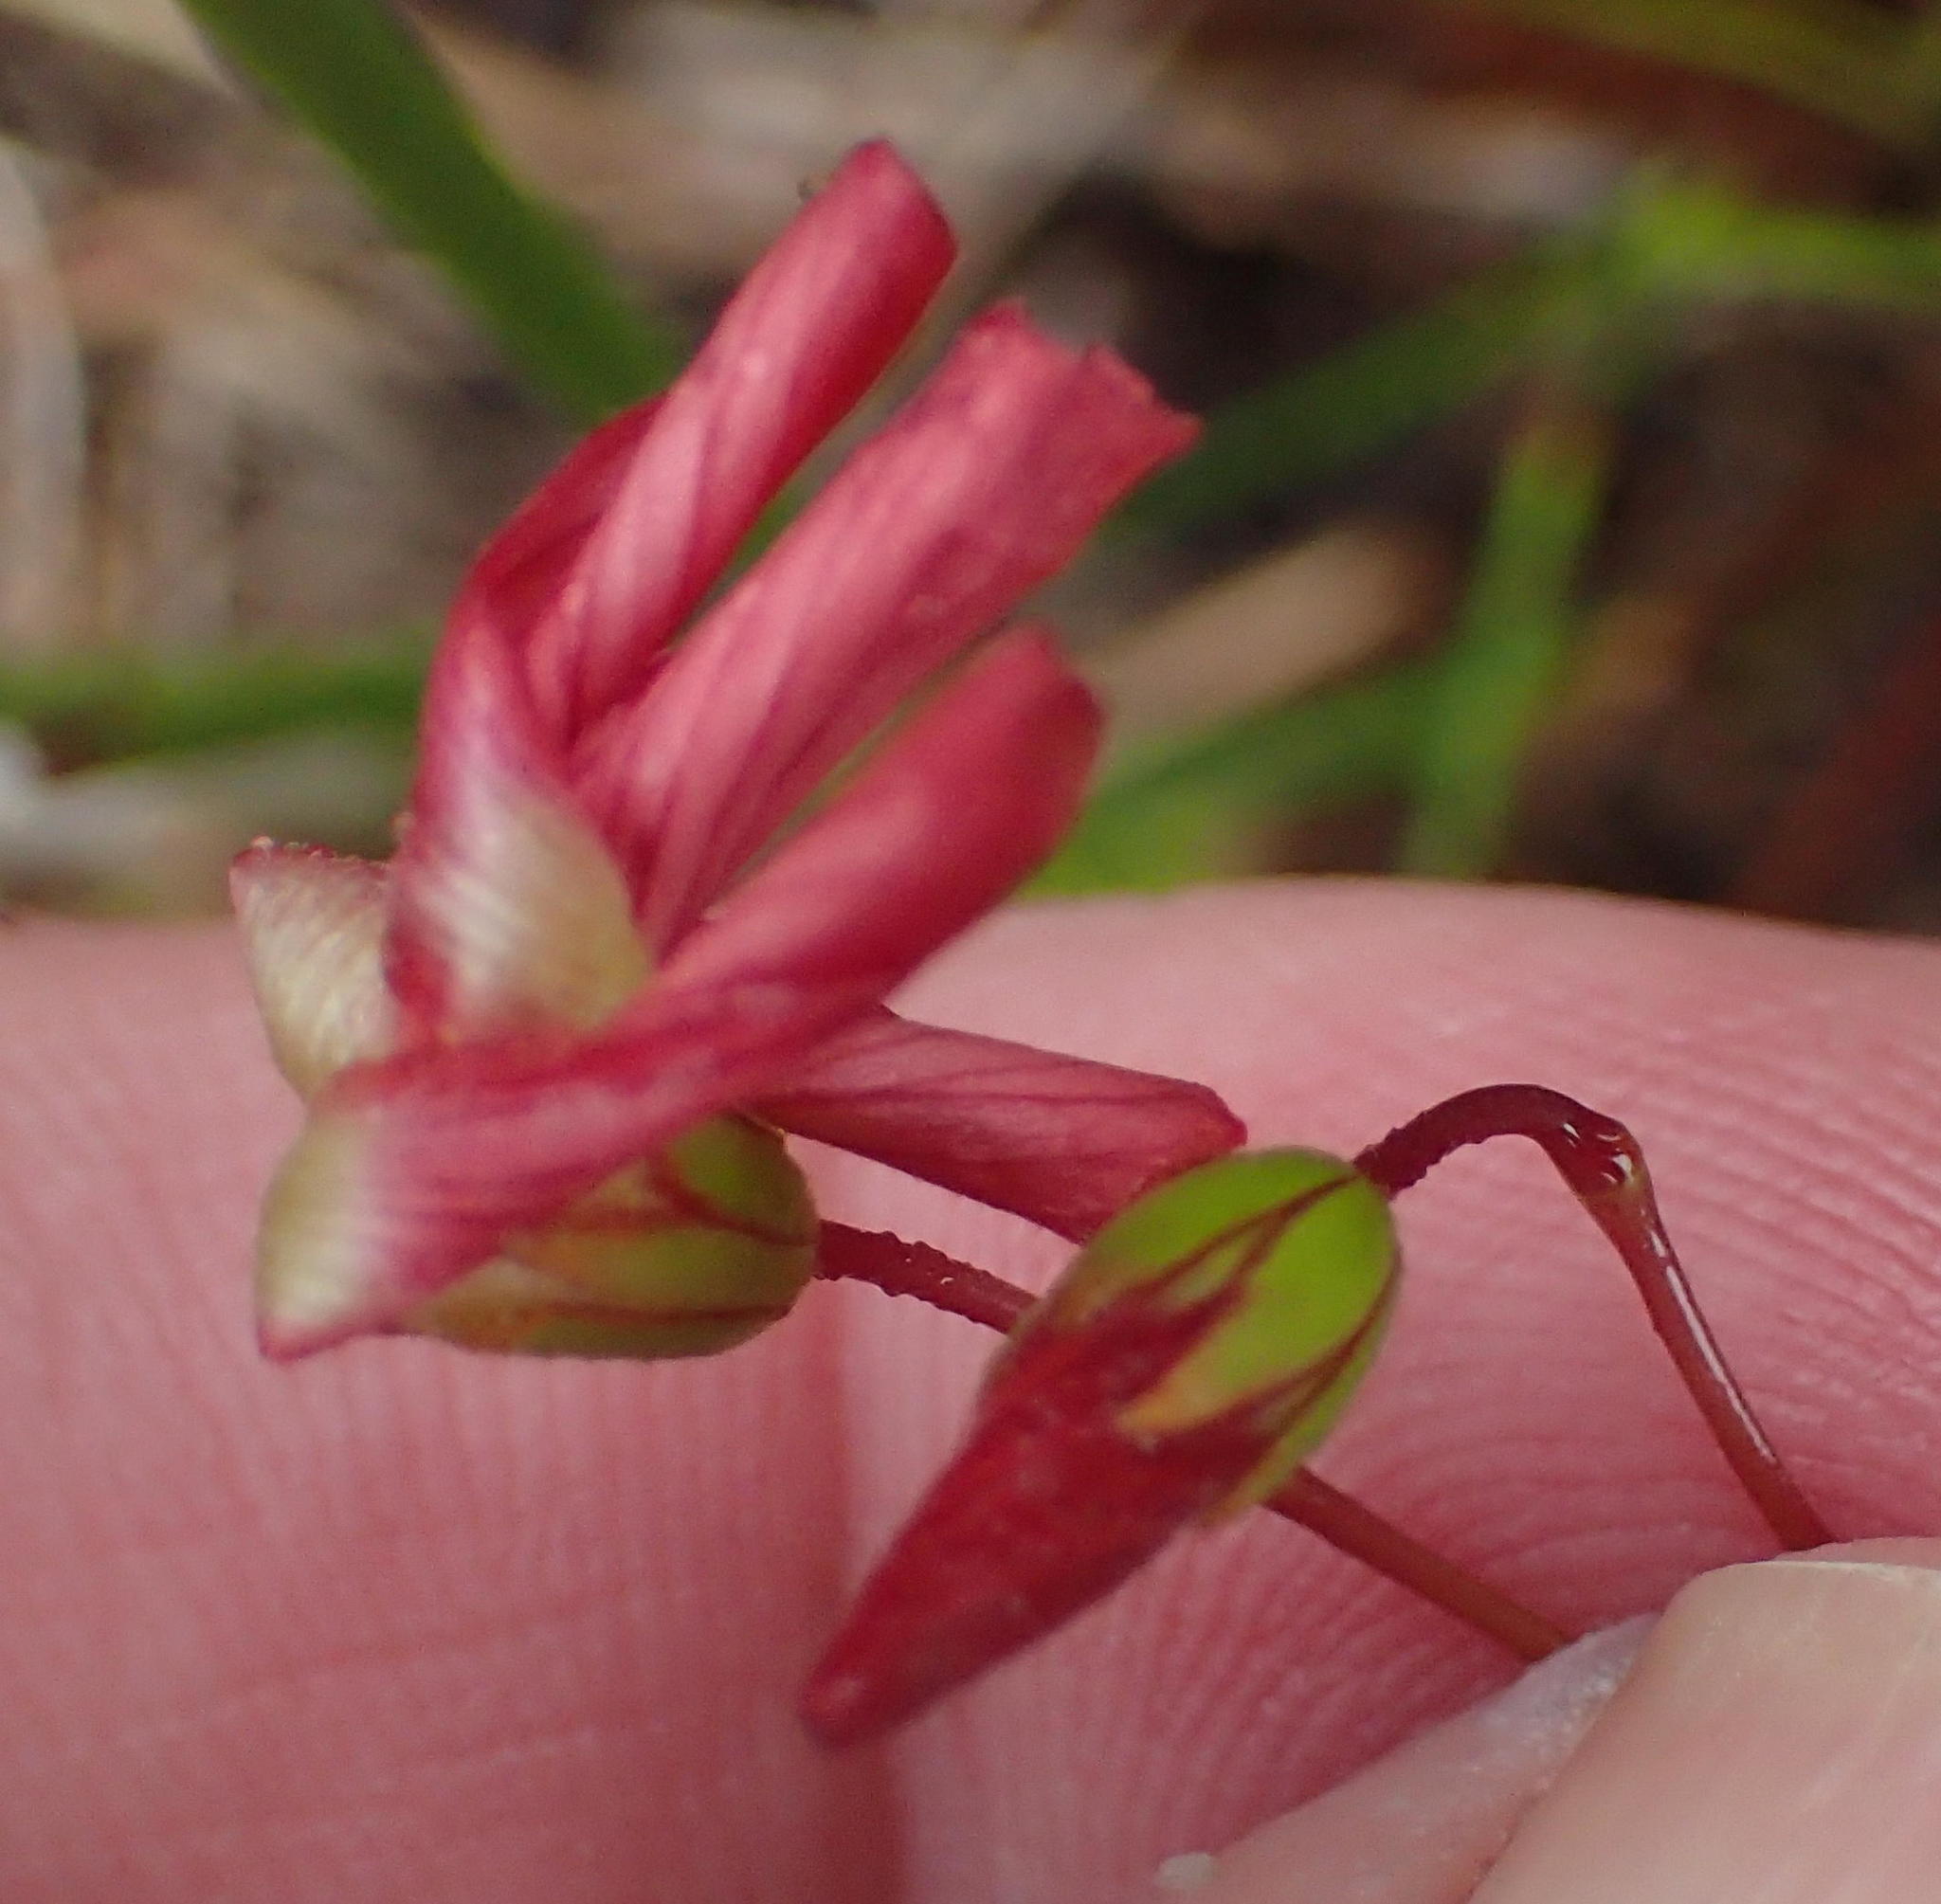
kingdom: Plantae
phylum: Tracheophyta
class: Magnoliopsida
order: Oxalidales
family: Oxalidaceae
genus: Oxalis
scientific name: Oxalis pendulifolia
